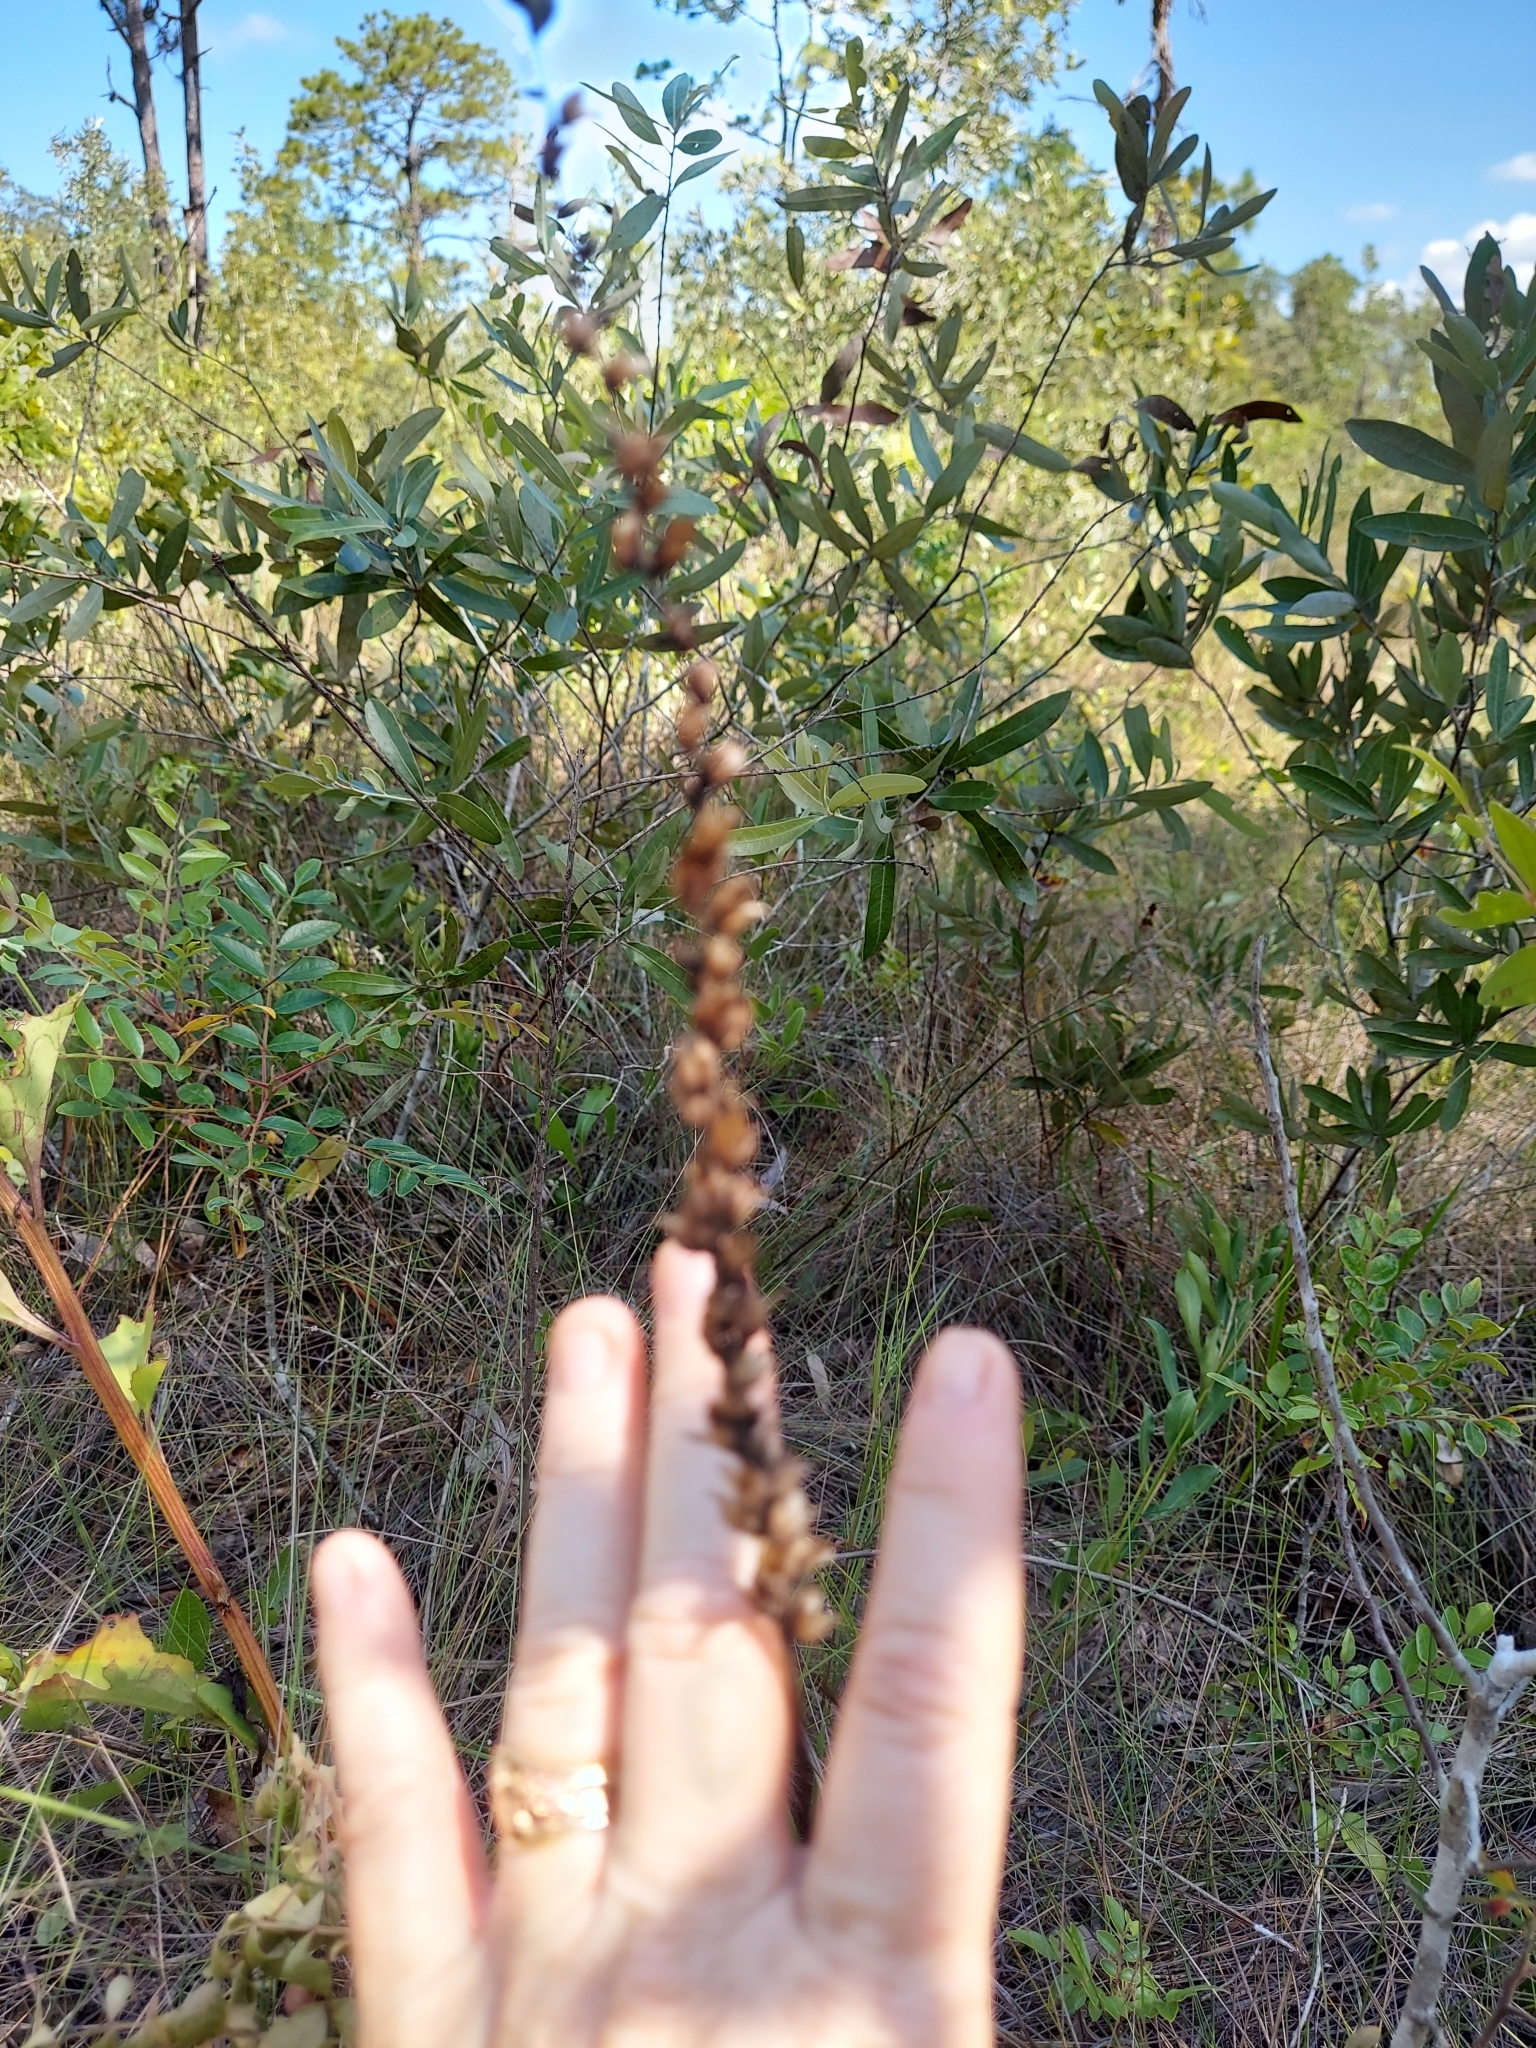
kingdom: Plantae
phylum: Tracheophyta
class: Liliopsida
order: Liliales
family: Melanthiaceae
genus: Schoenocaulon
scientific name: Schoenocaulon dubium
